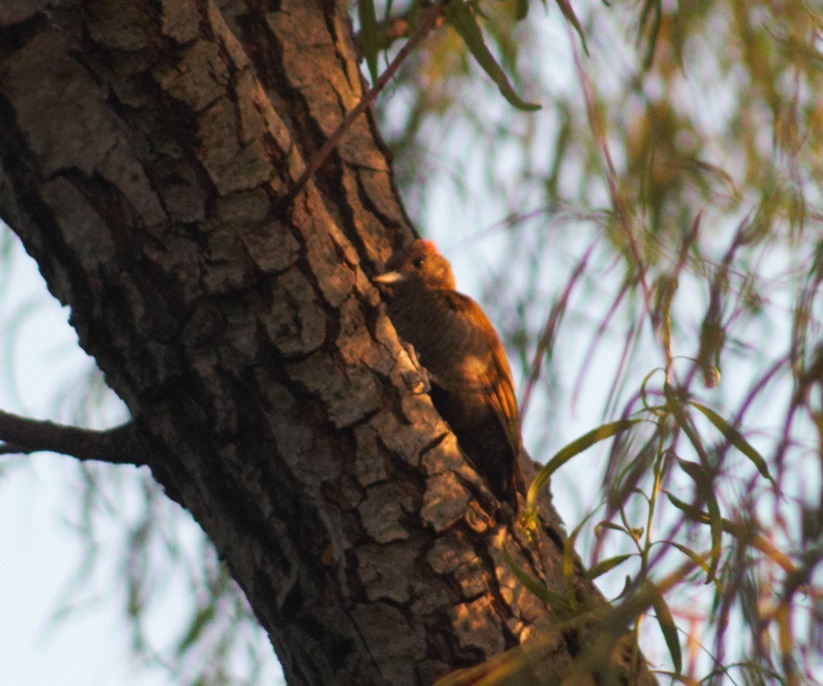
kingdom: Animalia
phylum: Chordata
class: Aves
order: Piciformes
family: Picidae
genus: Veniliornis
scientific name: Veniliornis passerinus
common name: Little woodpecker
